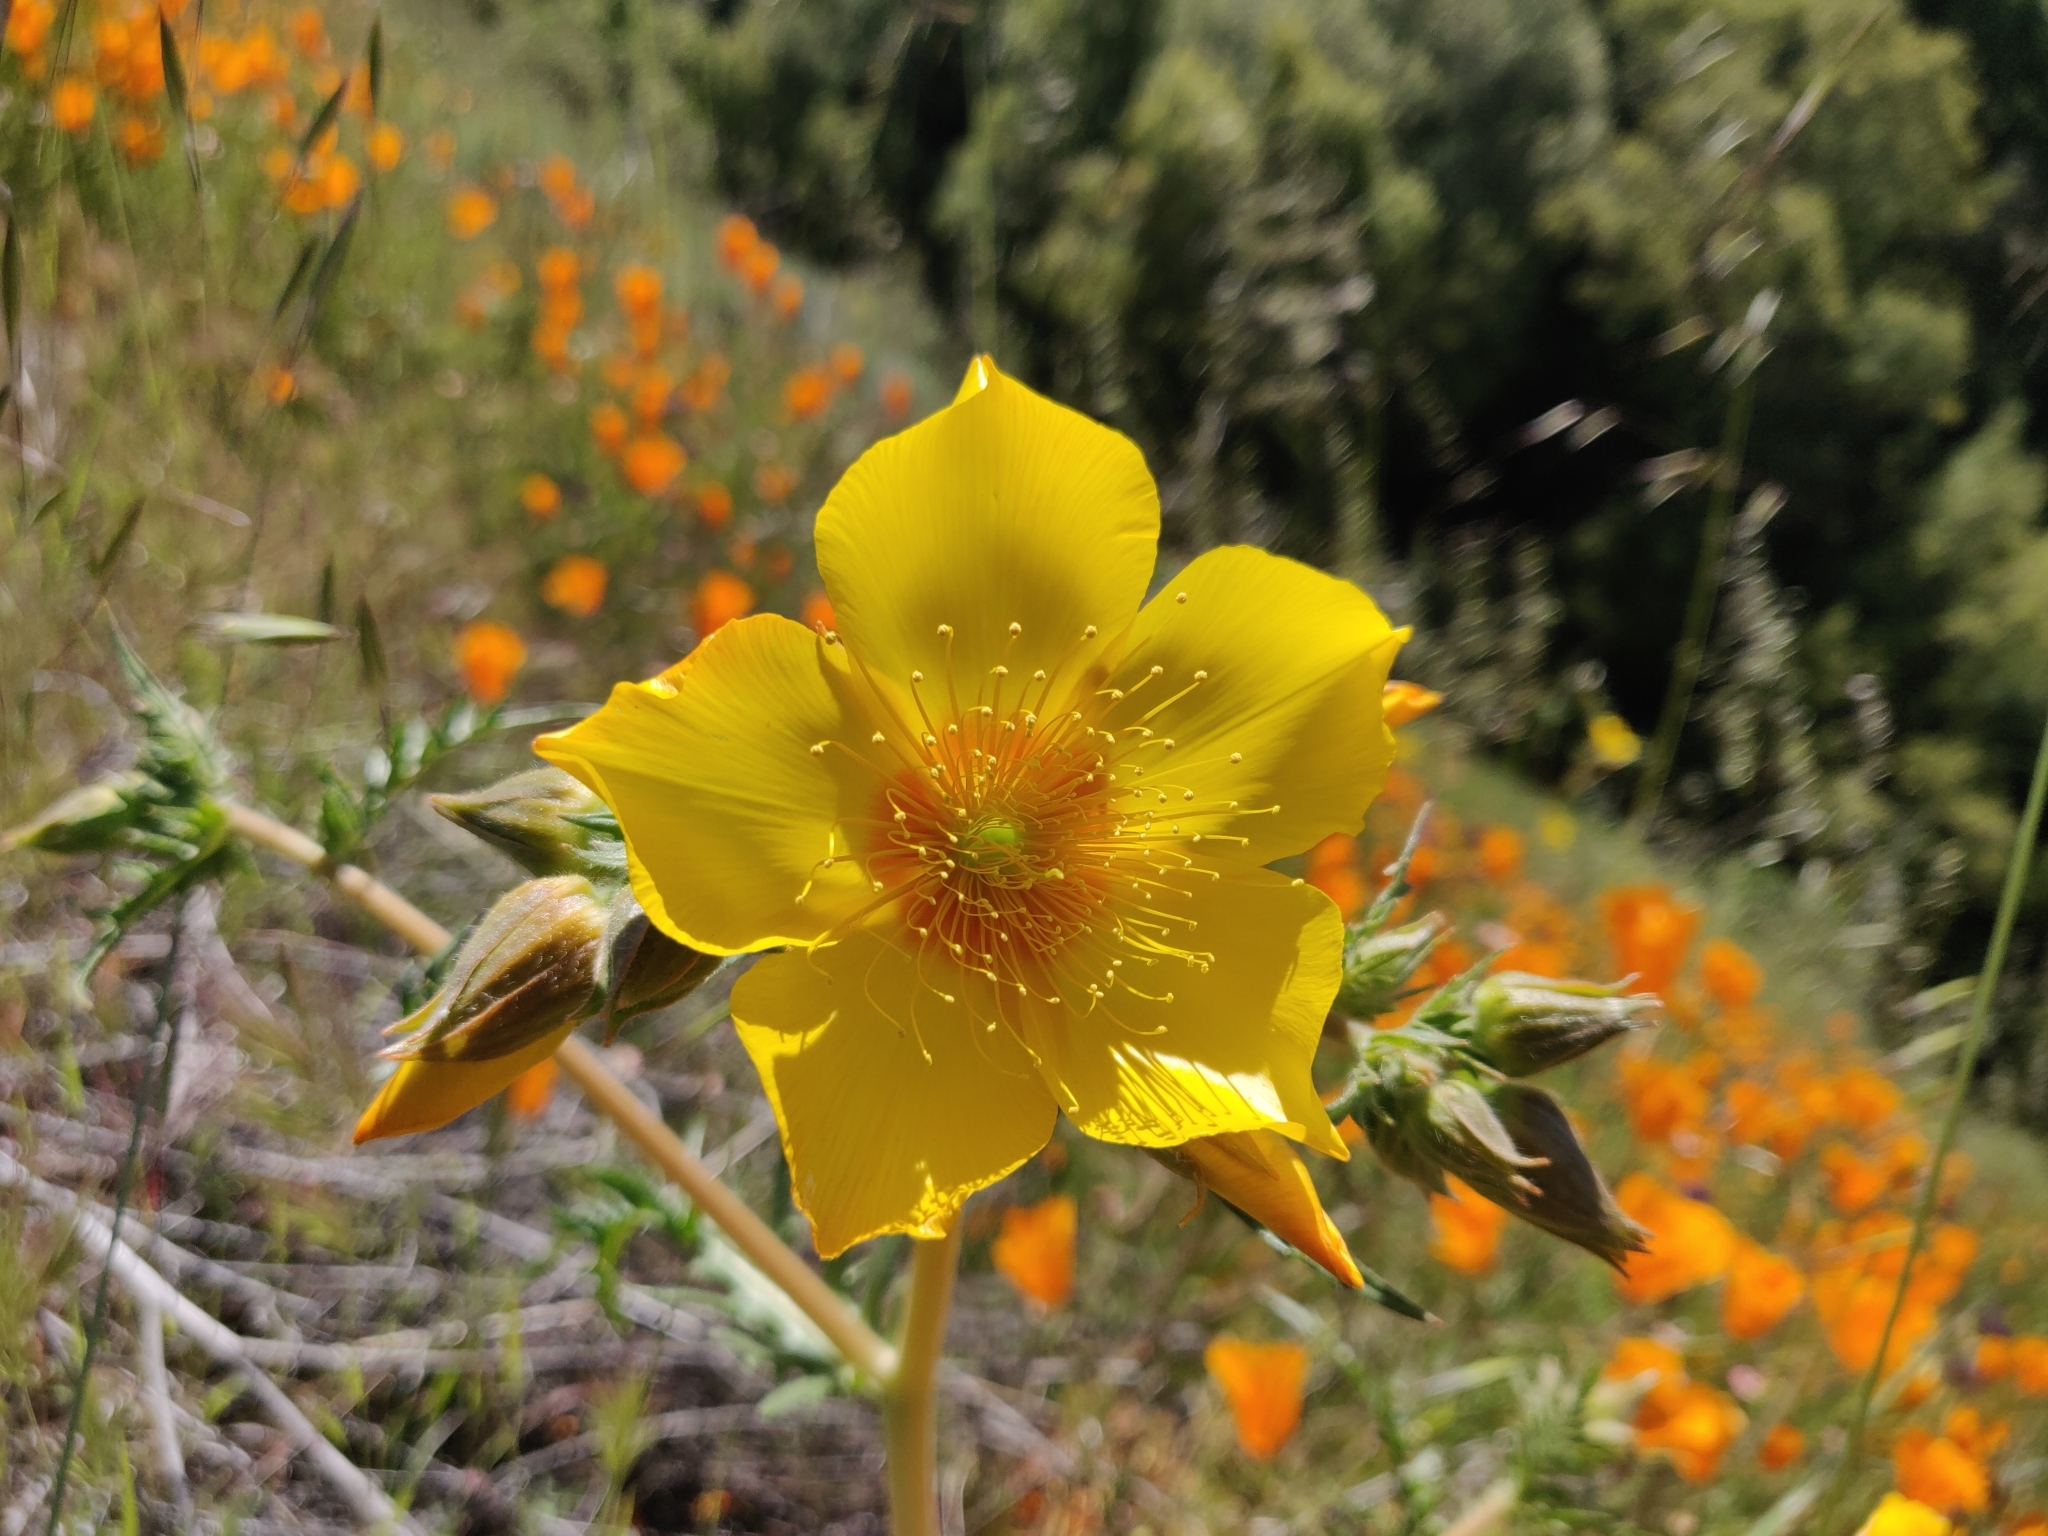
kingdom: Plantae
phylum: Tracheophyta
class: Magnoliopsida
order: Cornales
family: Loasaceae
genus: Mentzelia
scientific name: Mentzelia lindleyi
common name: Golden bartonia
